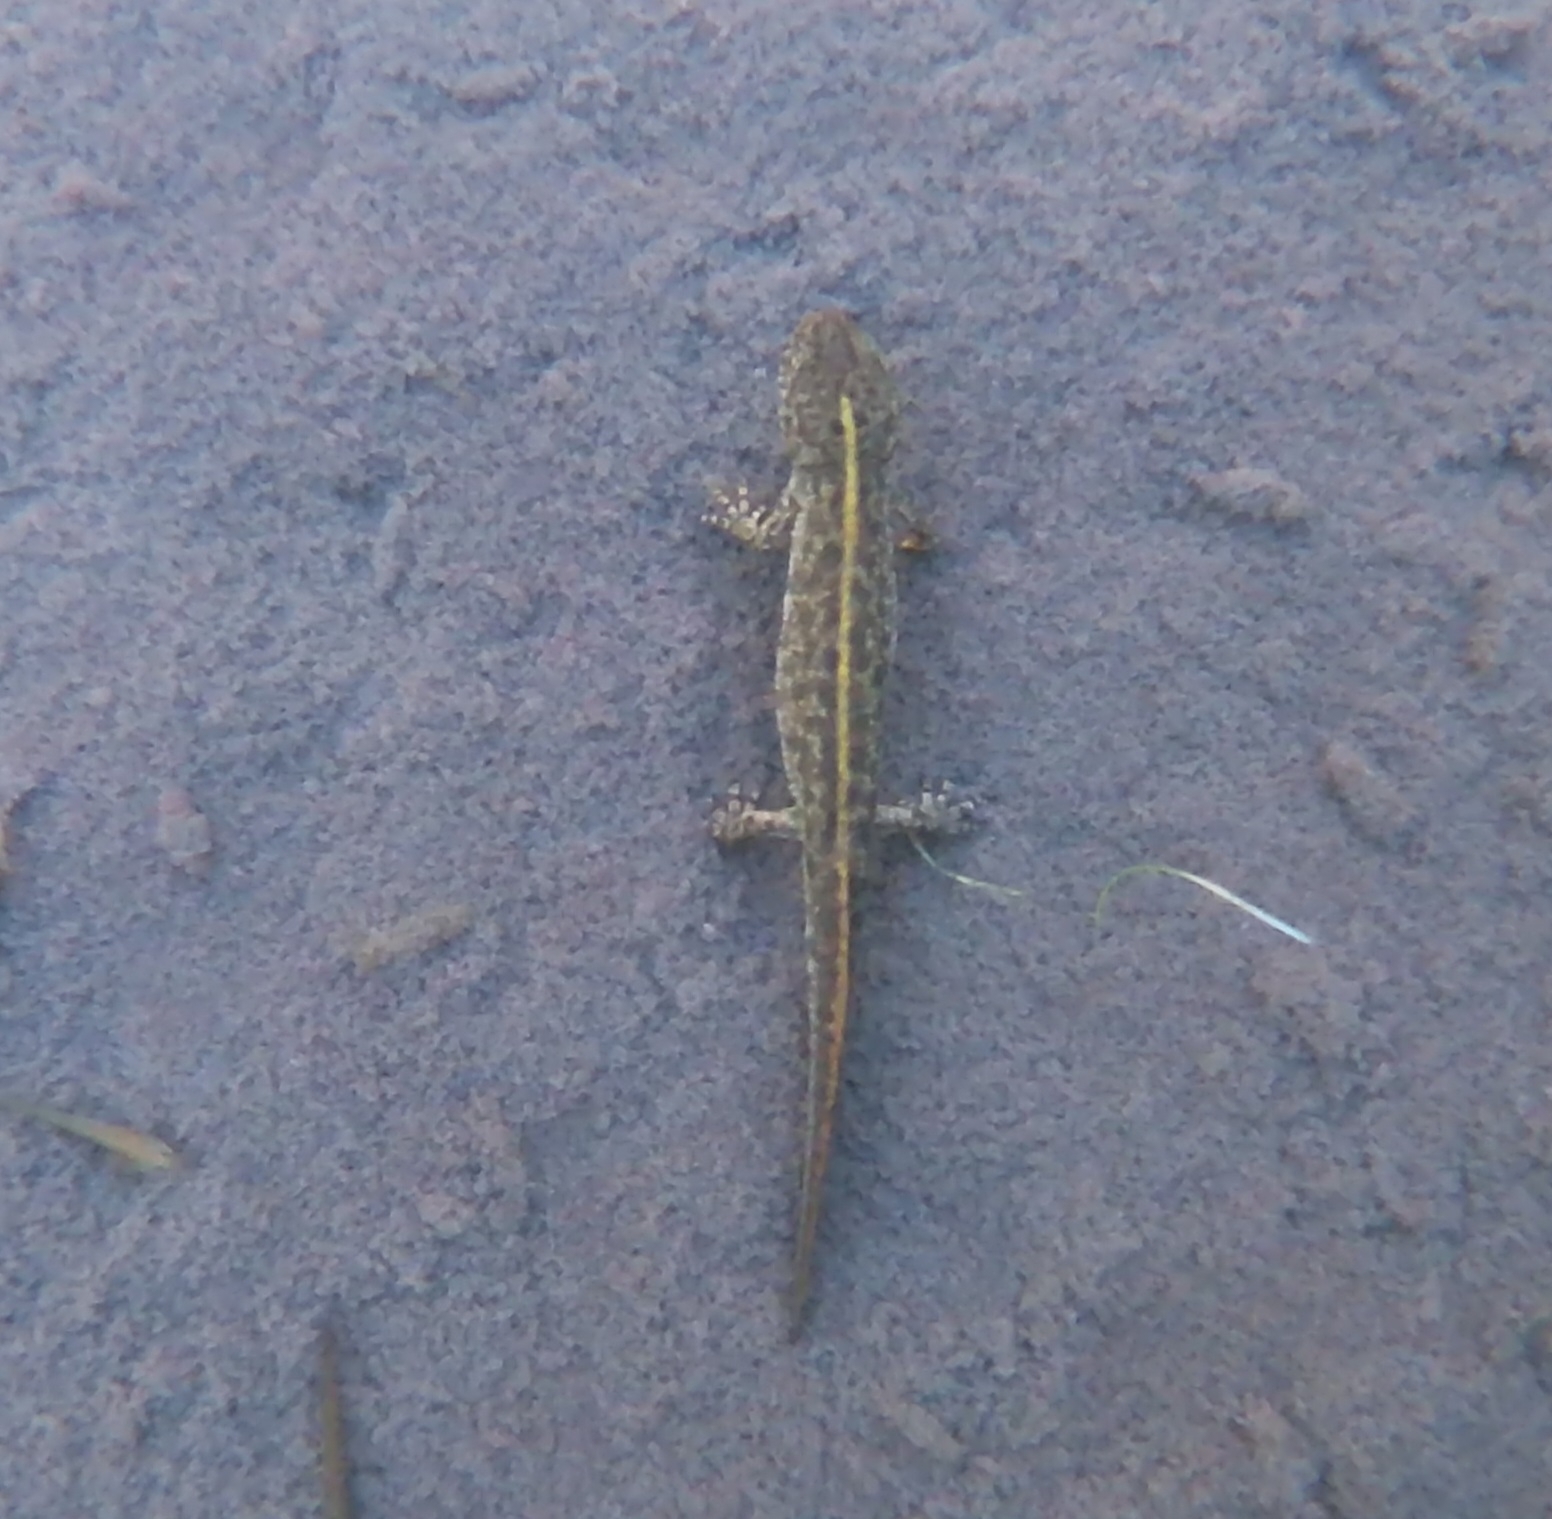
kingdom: Animalia
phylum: Chordata
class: Amphibia
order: Caudata
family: Salamandridae
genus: Triturus
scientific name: Triturus carnifex
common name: Italian crested newt
